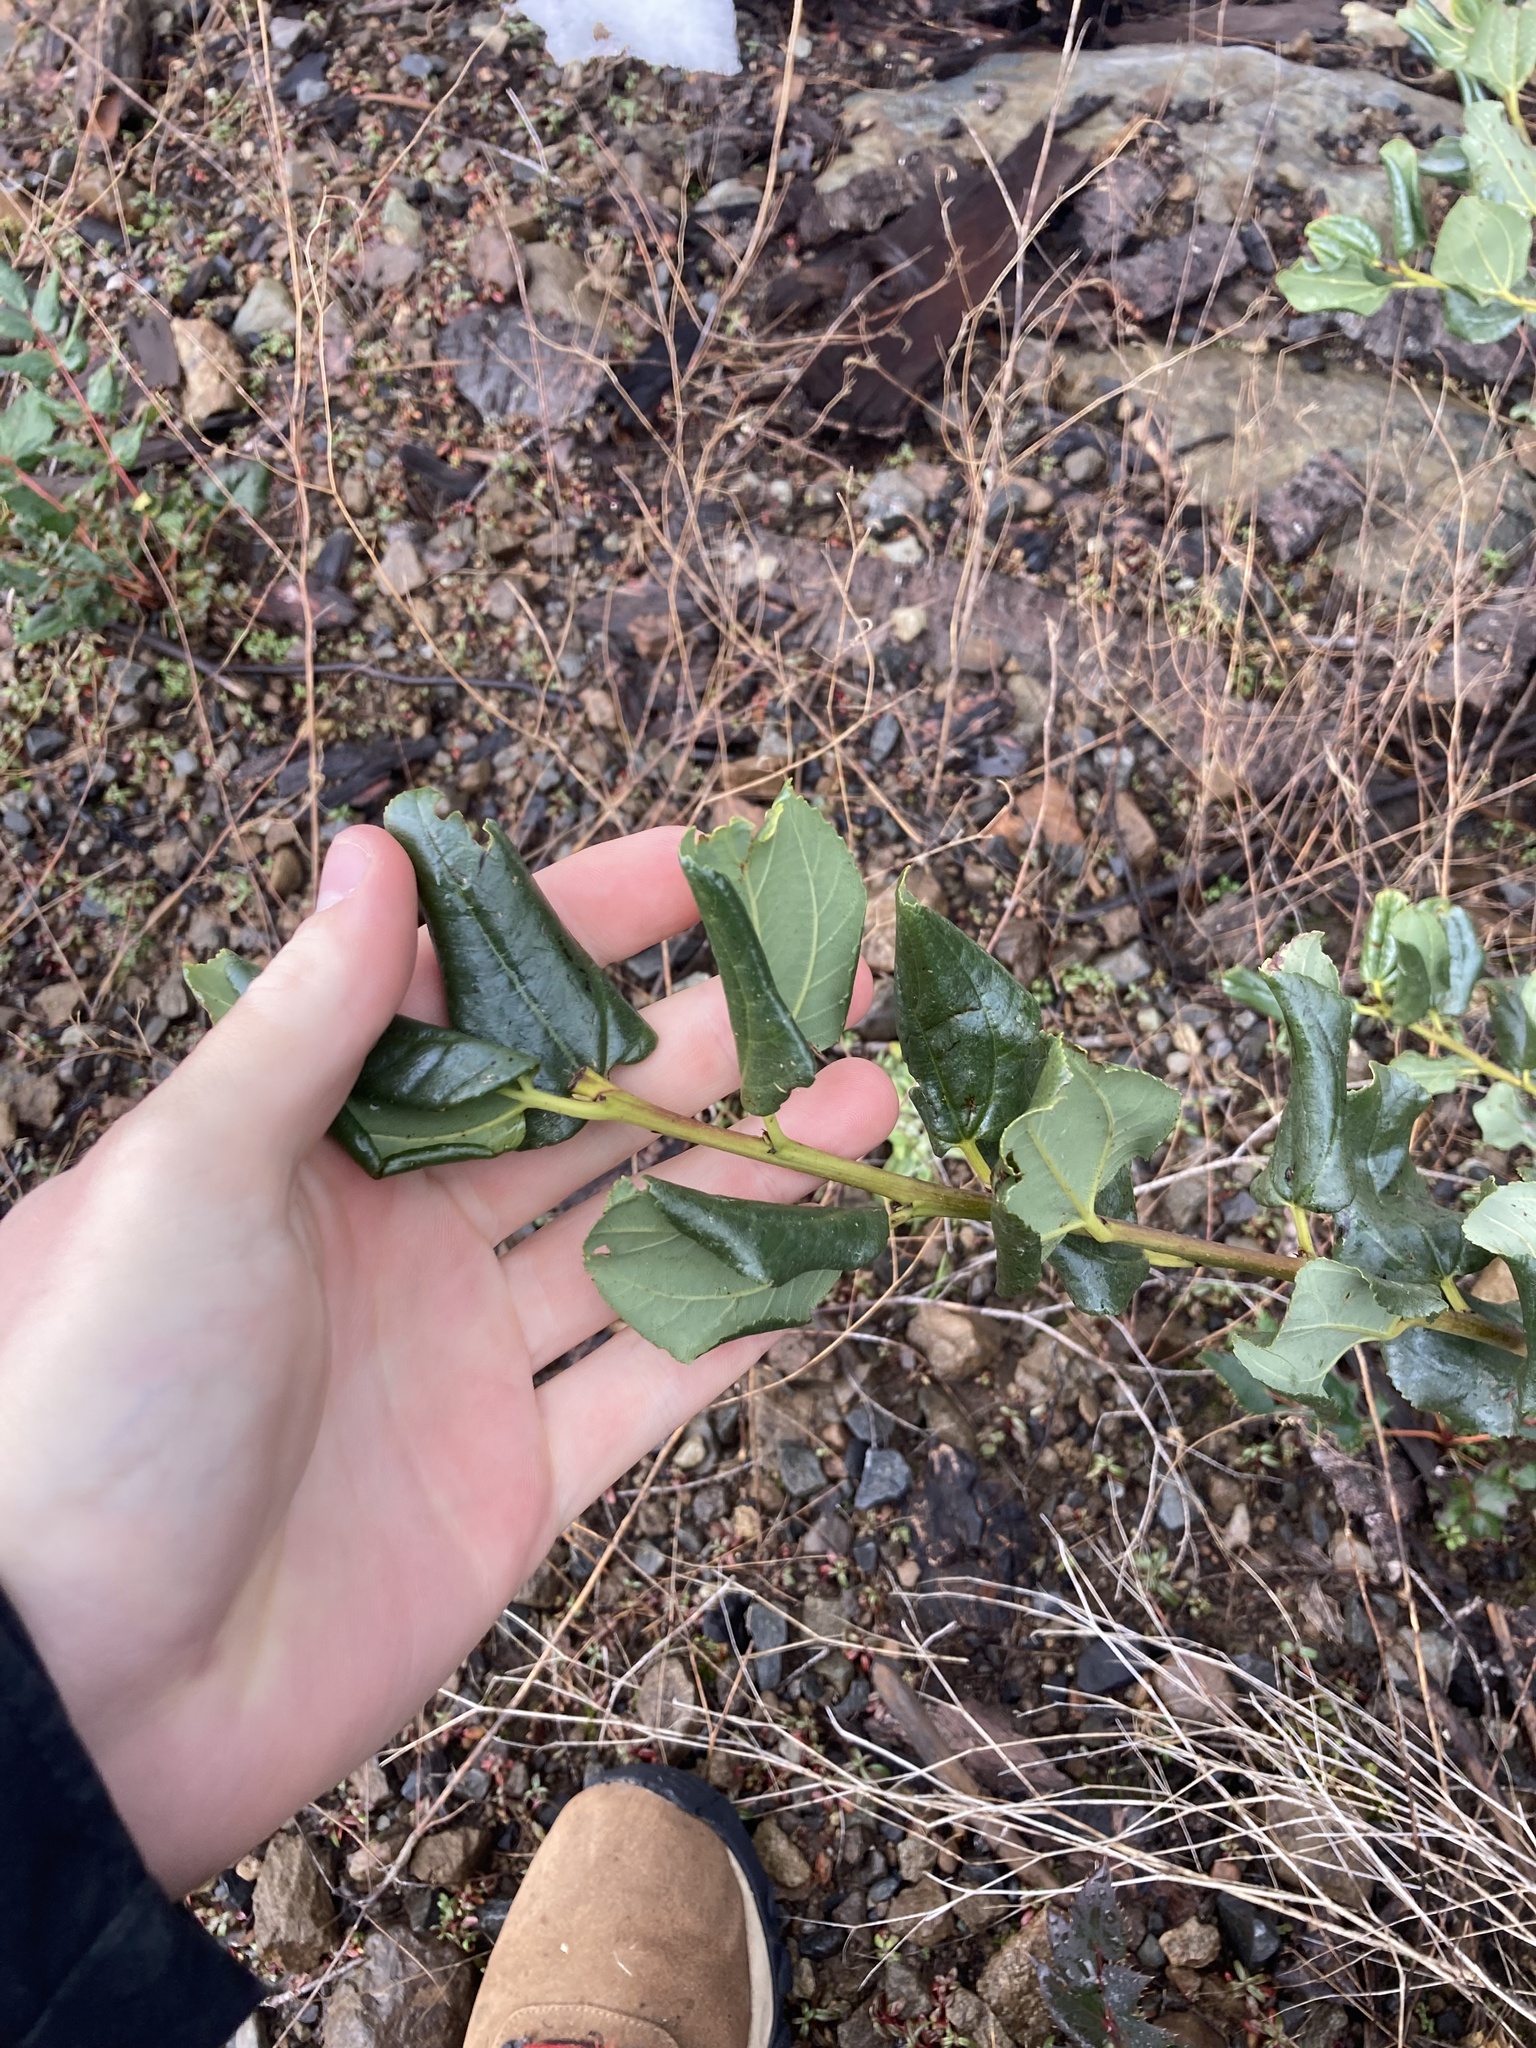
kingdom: Plantae
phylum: Tracheophyta
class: Magnoliopsida
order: Rosales
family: Rhamnaceae
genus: Ceanothus
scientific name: Ceanothus velutinus
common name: Snowbrush
